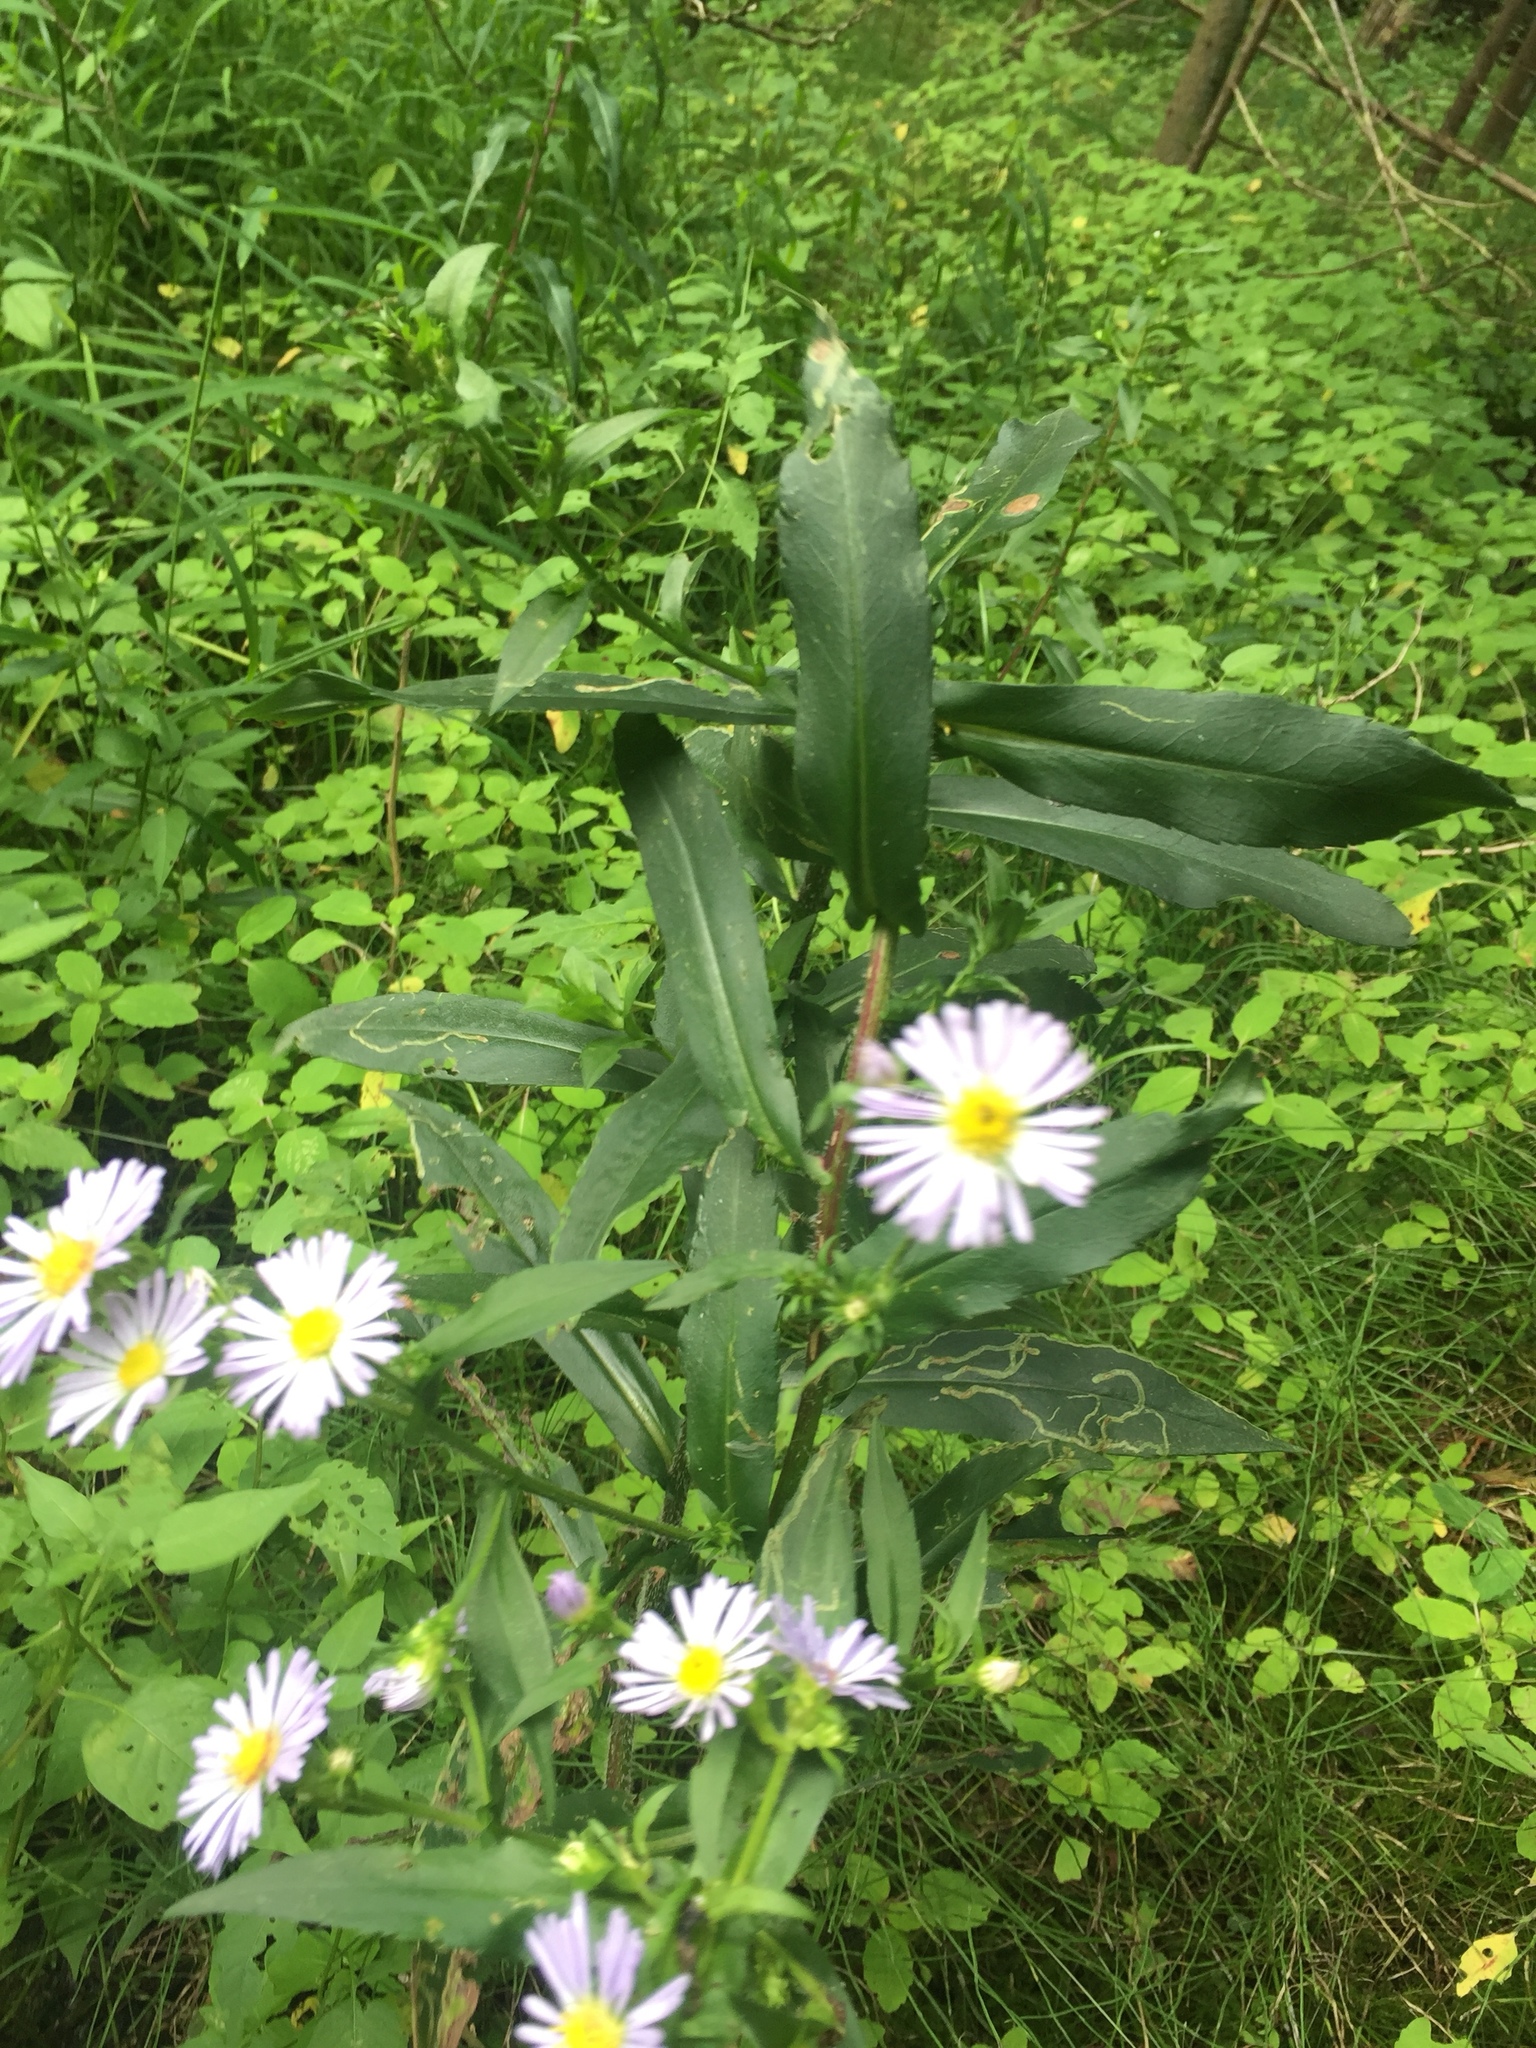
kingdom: Plantae
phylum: Tracheophyta
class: Magnoliopsida
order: Asterales
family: Asteraceae
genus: Symphyotrichum
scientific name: Symphyotrichum puniceum
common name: Bog aster
